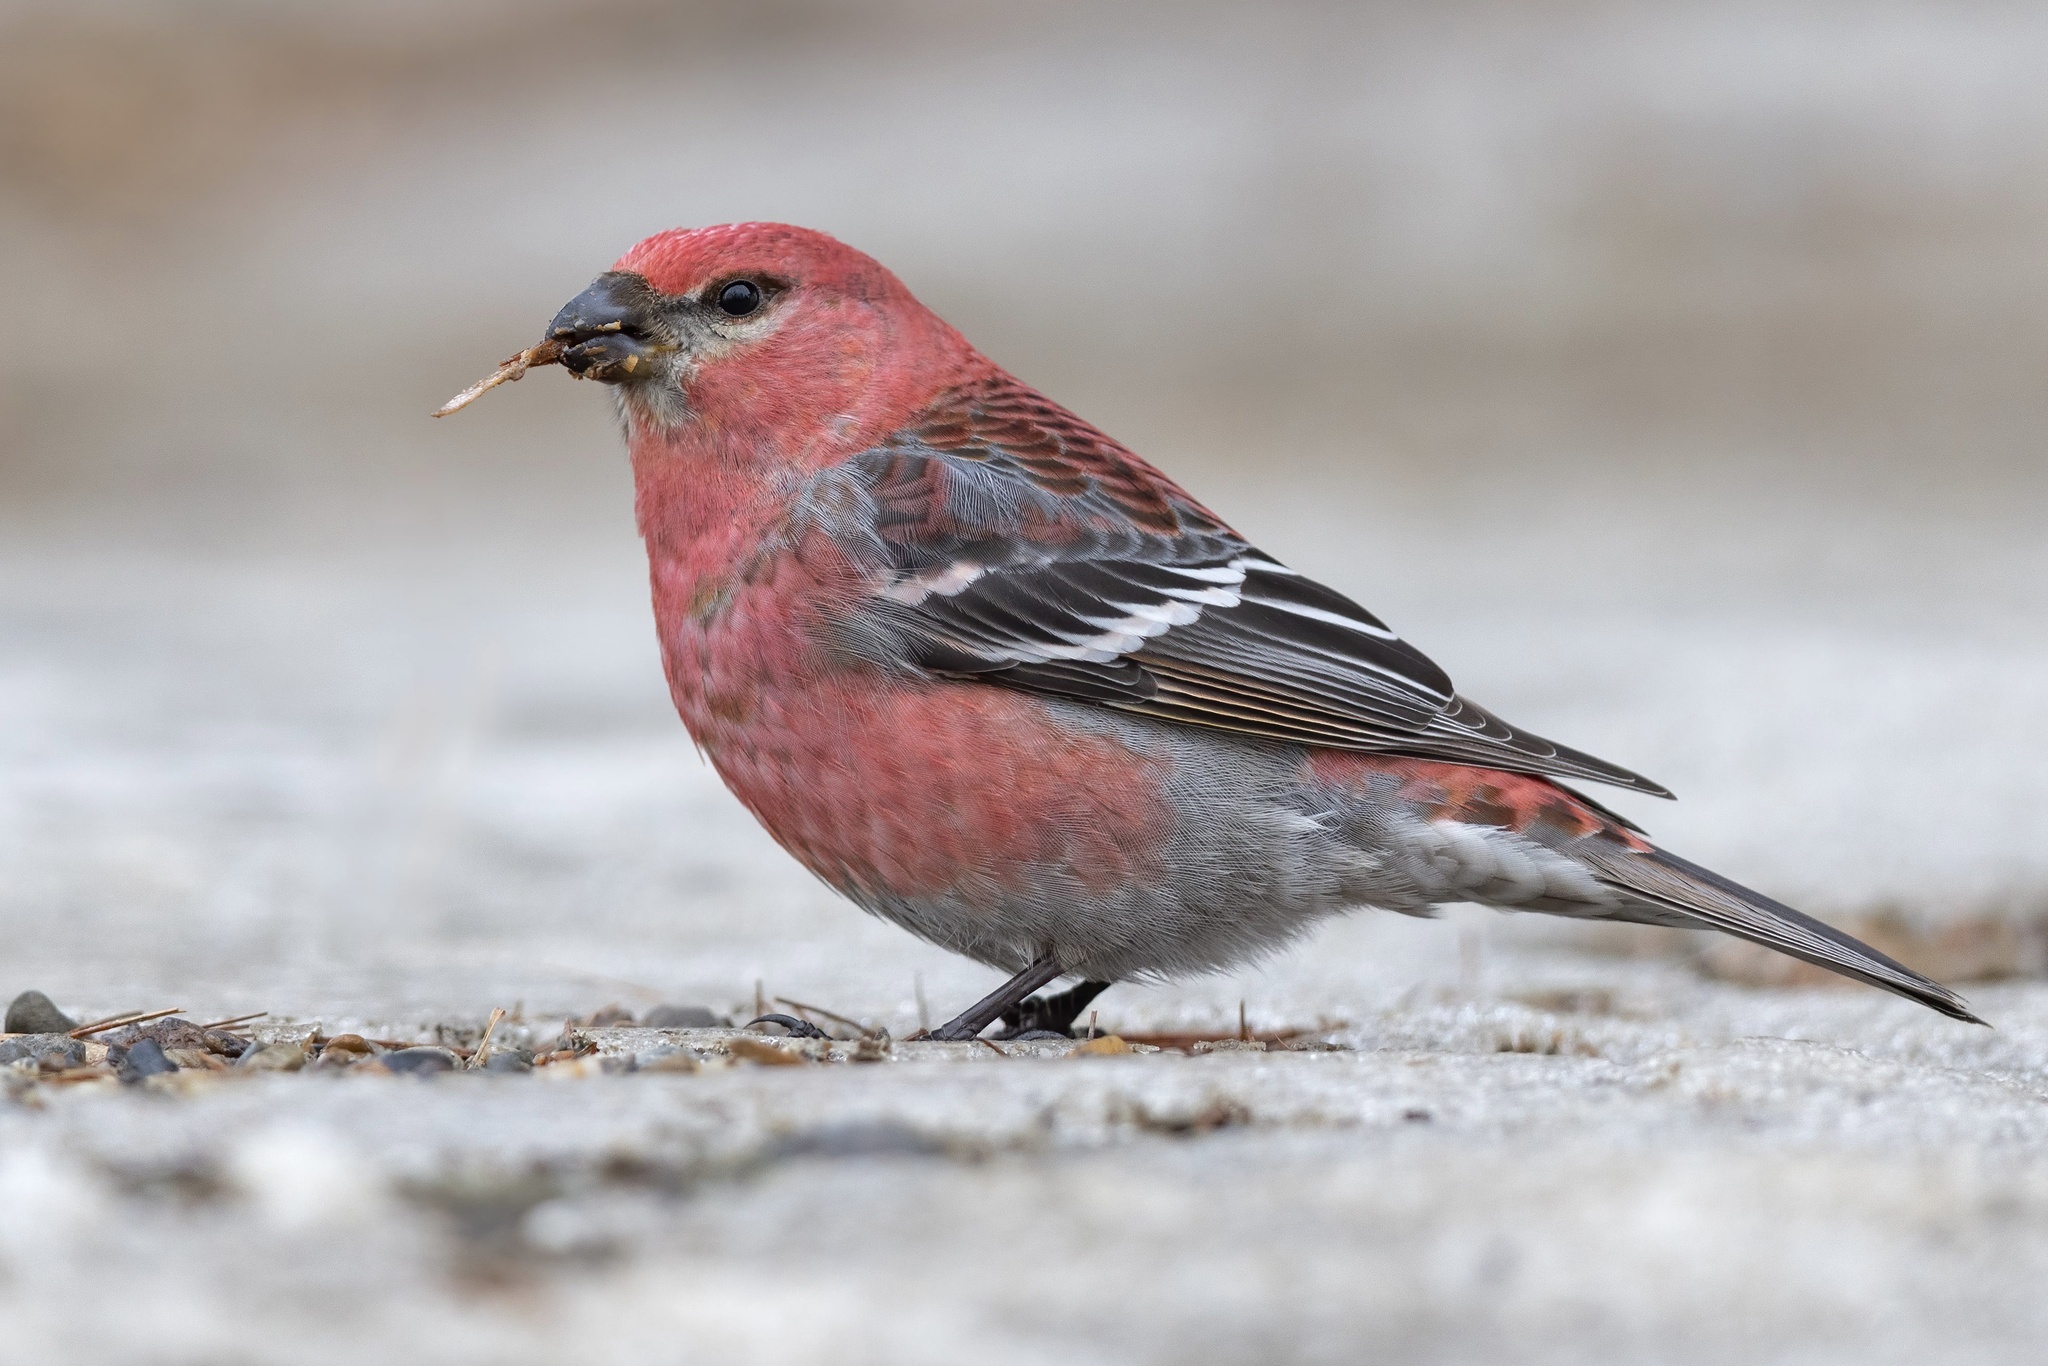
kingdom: Animalia
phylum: Chordata
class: Aves
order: Passeriformes
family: Fringillidae
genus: Pinicola
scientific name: Pinicola enucleator
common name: Pine grosbeak
